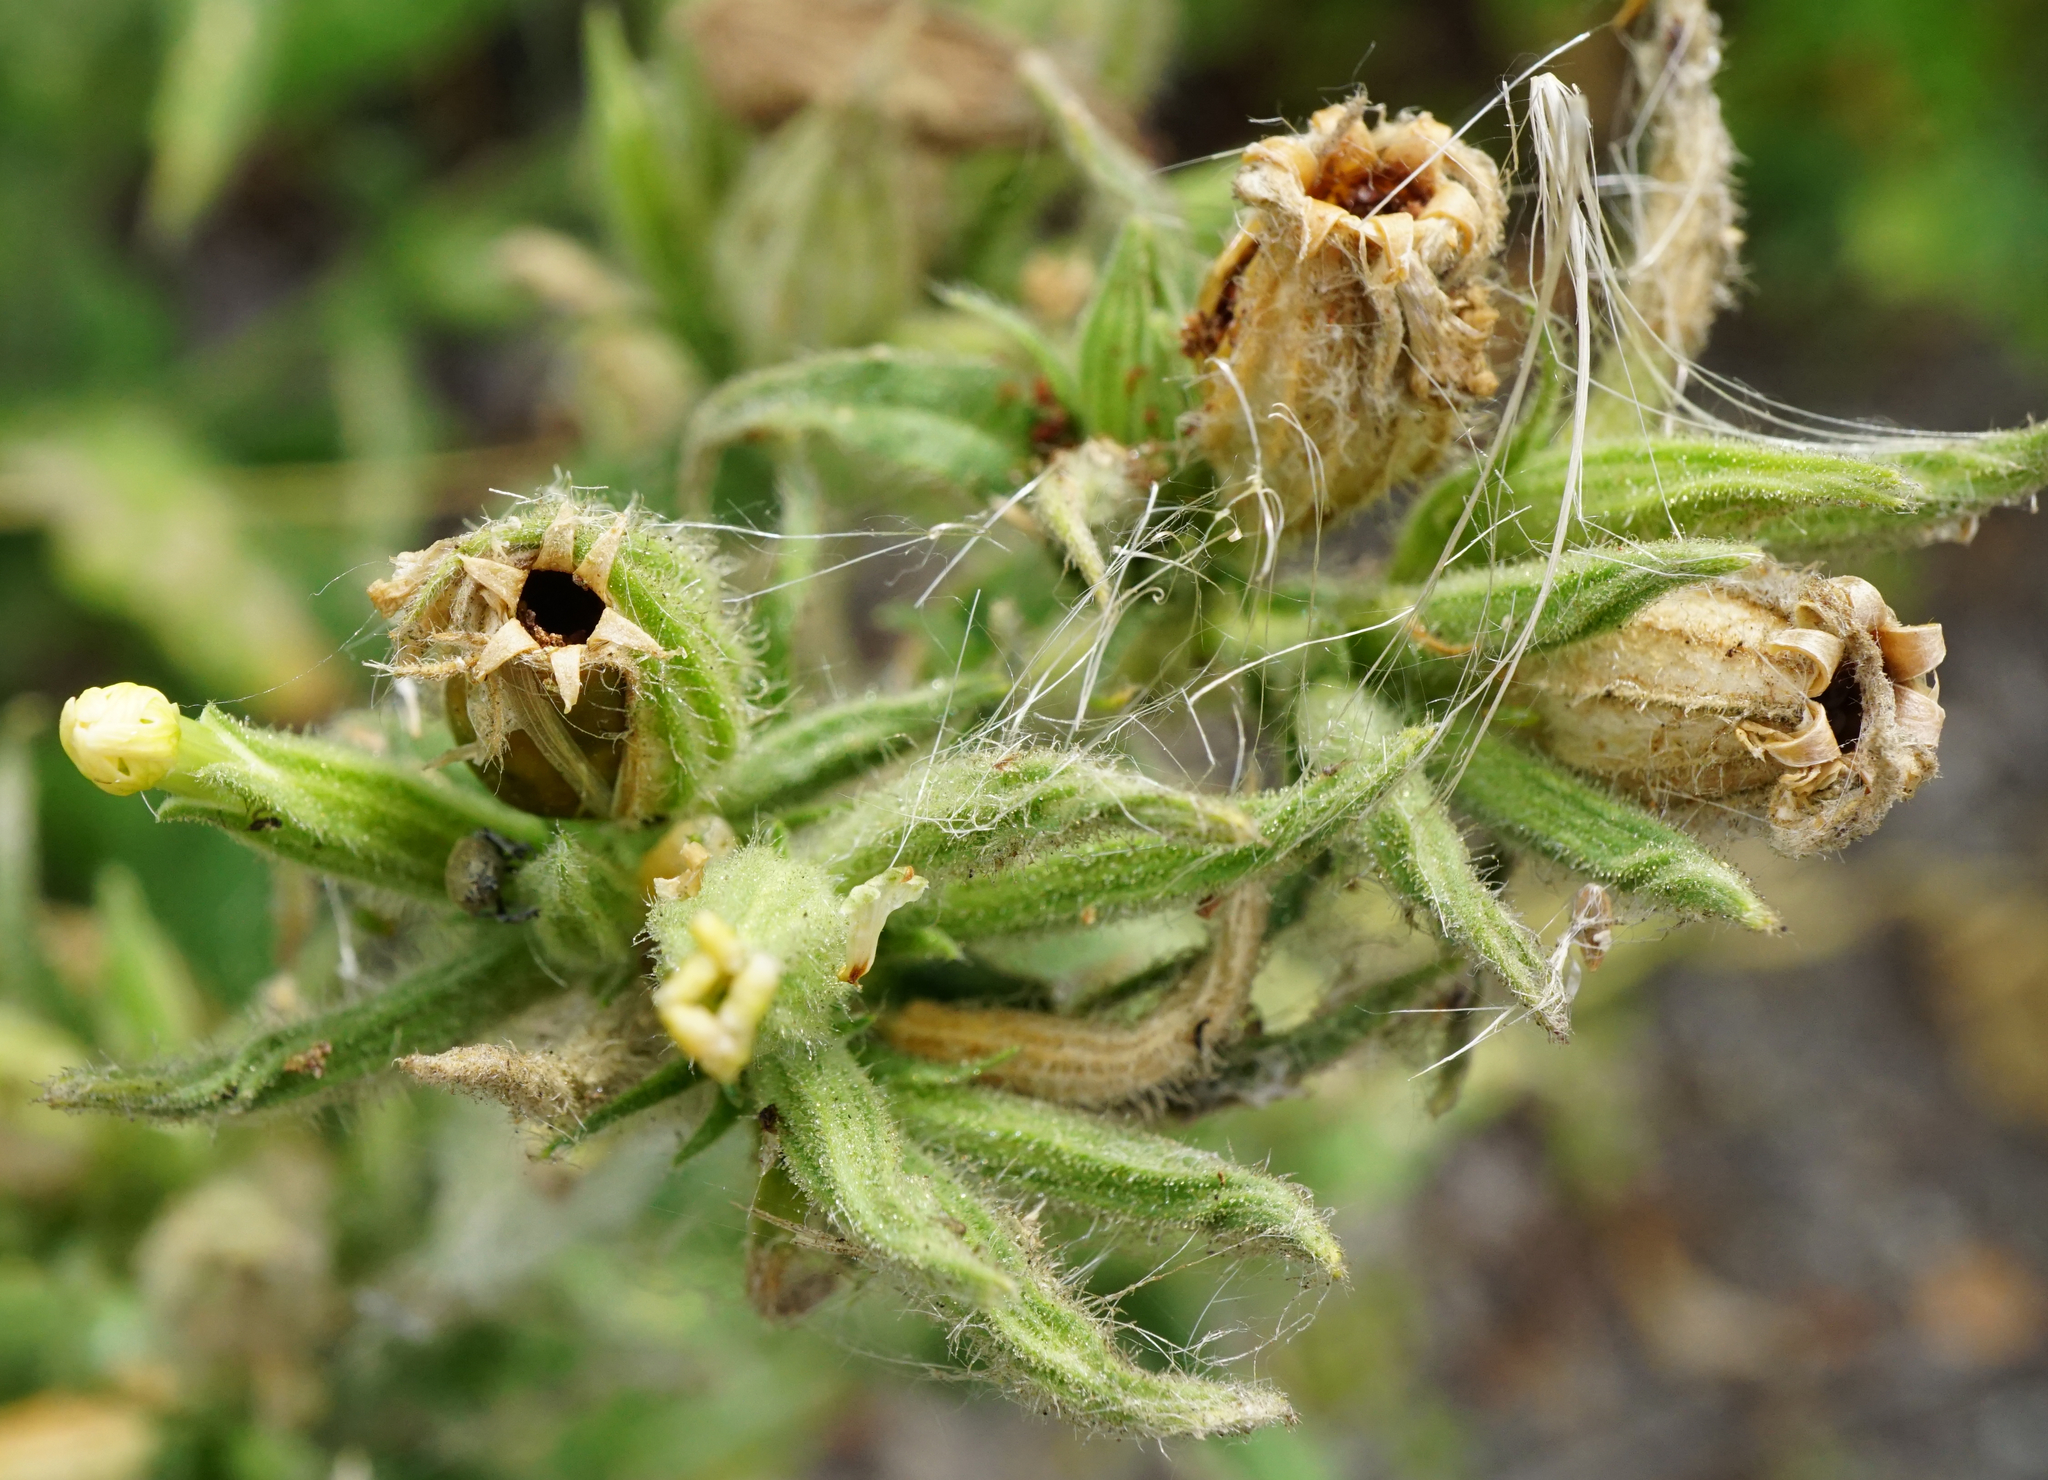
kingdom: Plantae
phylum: Tracheophyta
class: Magnoliopsida
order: Caryophyllales
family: Caryophyllaceae
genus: Silene
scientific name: Silene noctiflora
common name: Night-flowering catchfly
